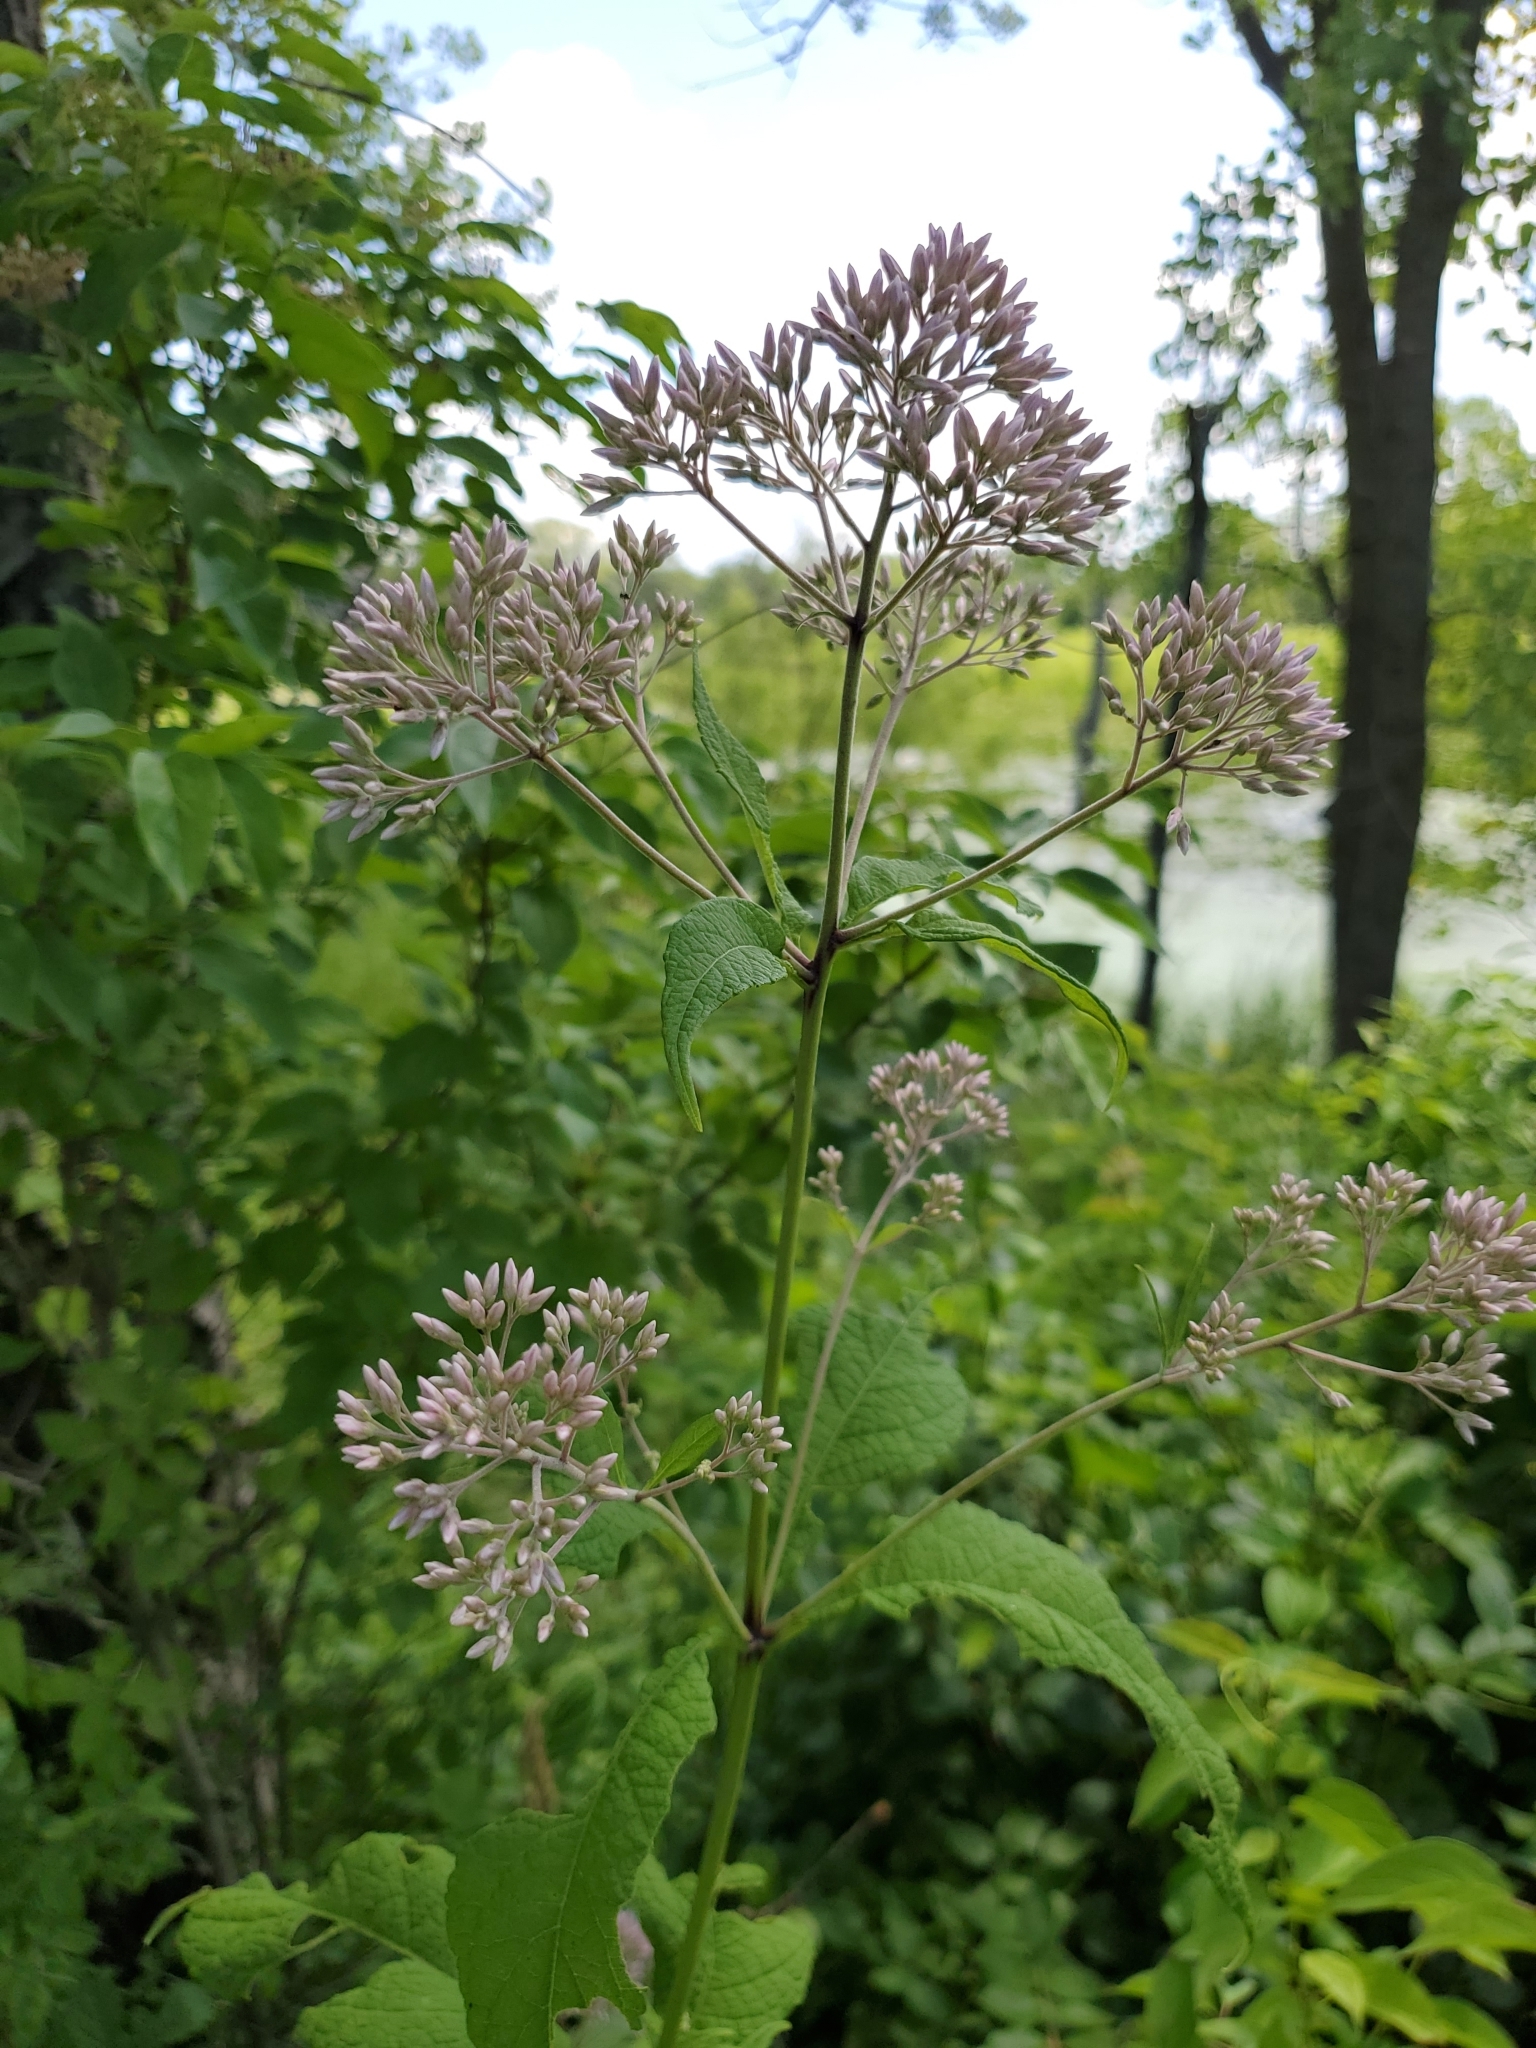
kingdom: Plantae
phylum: Tracheophyta
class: Magnoliopsida
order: Asterales
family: Asteraceae
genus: Eutrochium
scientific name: Eutrochium purpureum
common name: Gravelroot
